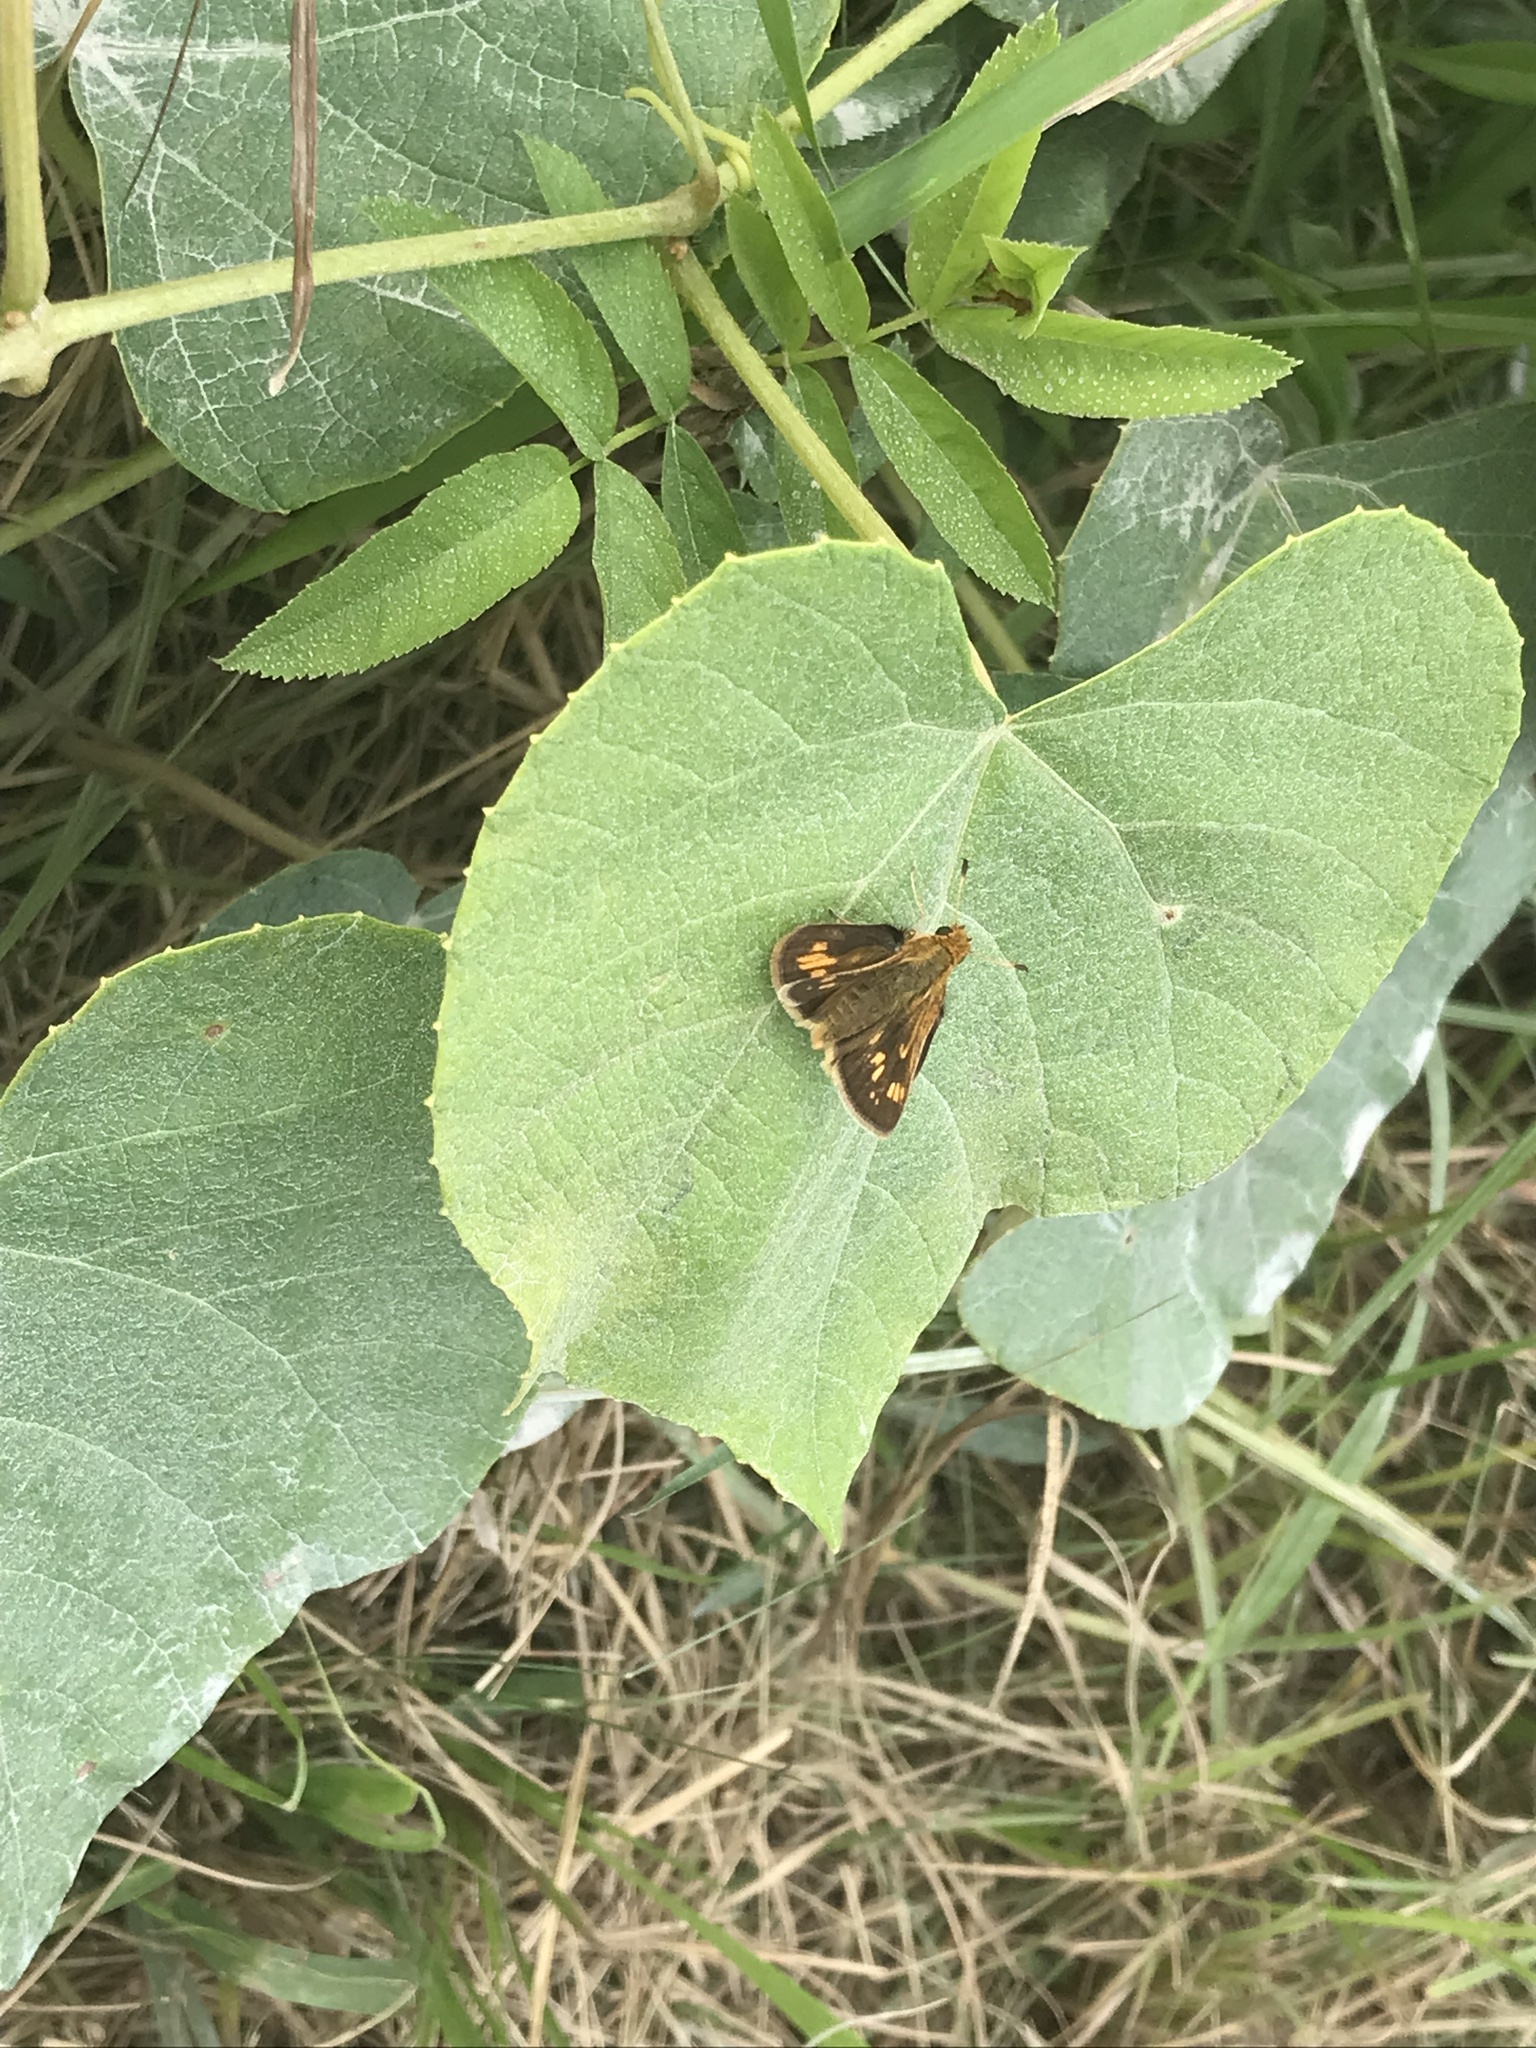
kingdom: Animalia
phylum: Arthropoda
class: Insecta
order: Lepidoptera
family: Hesperiidae
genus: Polites
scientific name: Polites coras
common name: Peck's skipper
